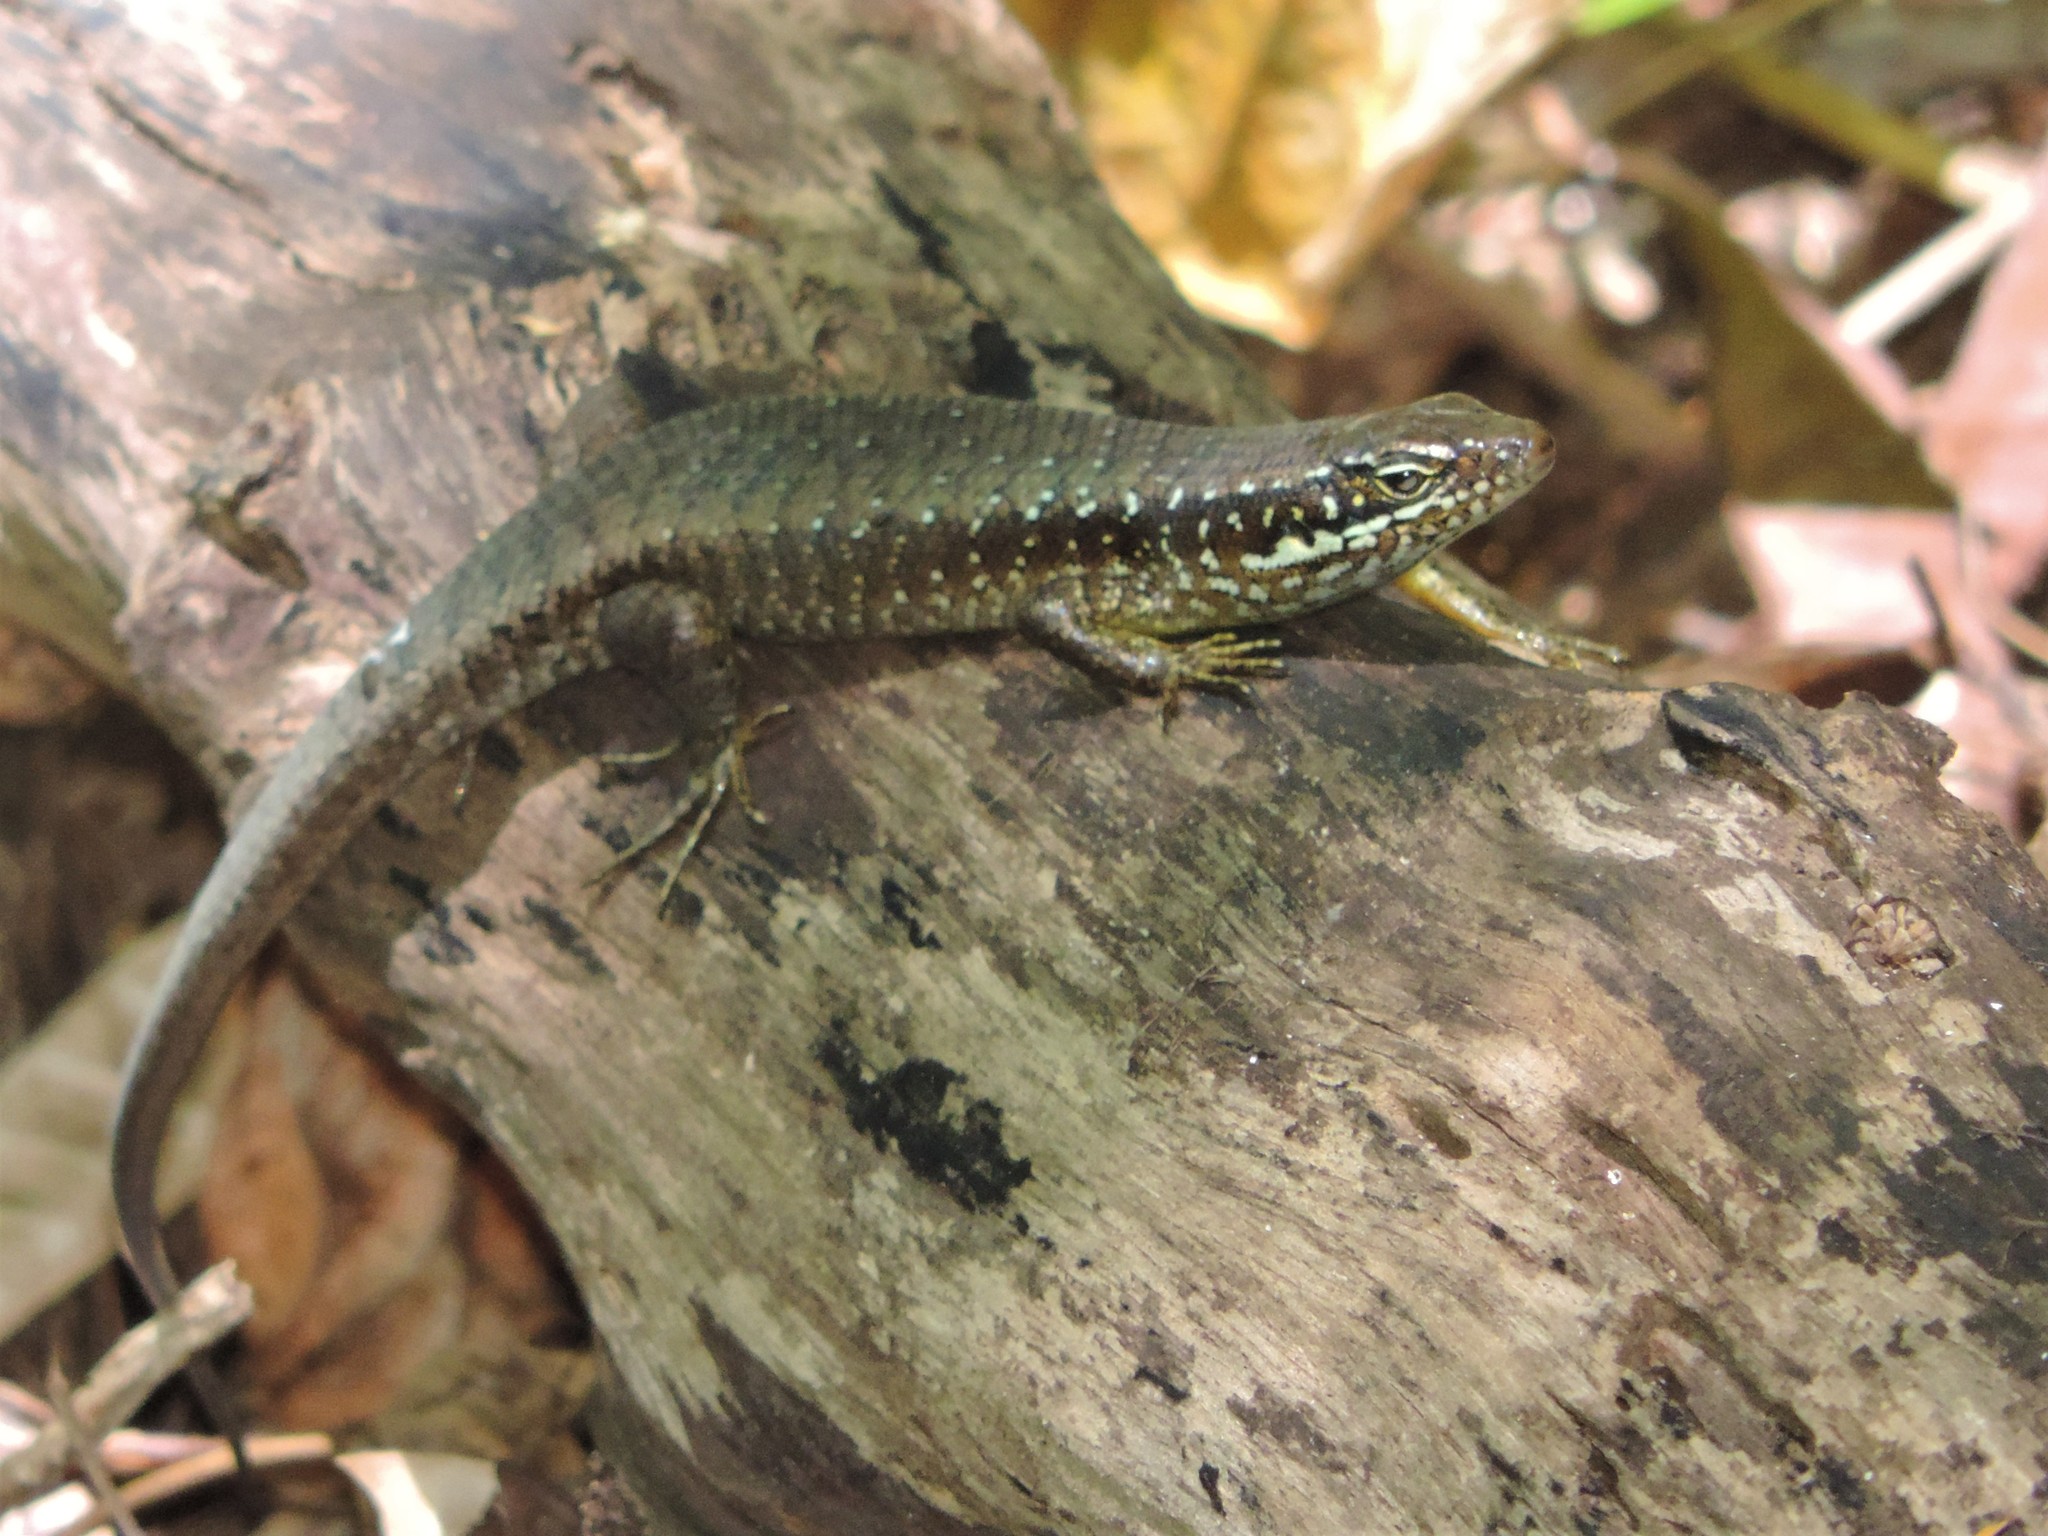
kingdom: Animalia
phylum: Chordata
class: Squamata
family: Scincidae
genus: Trachylepis
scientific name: Trachylepis comorensis
